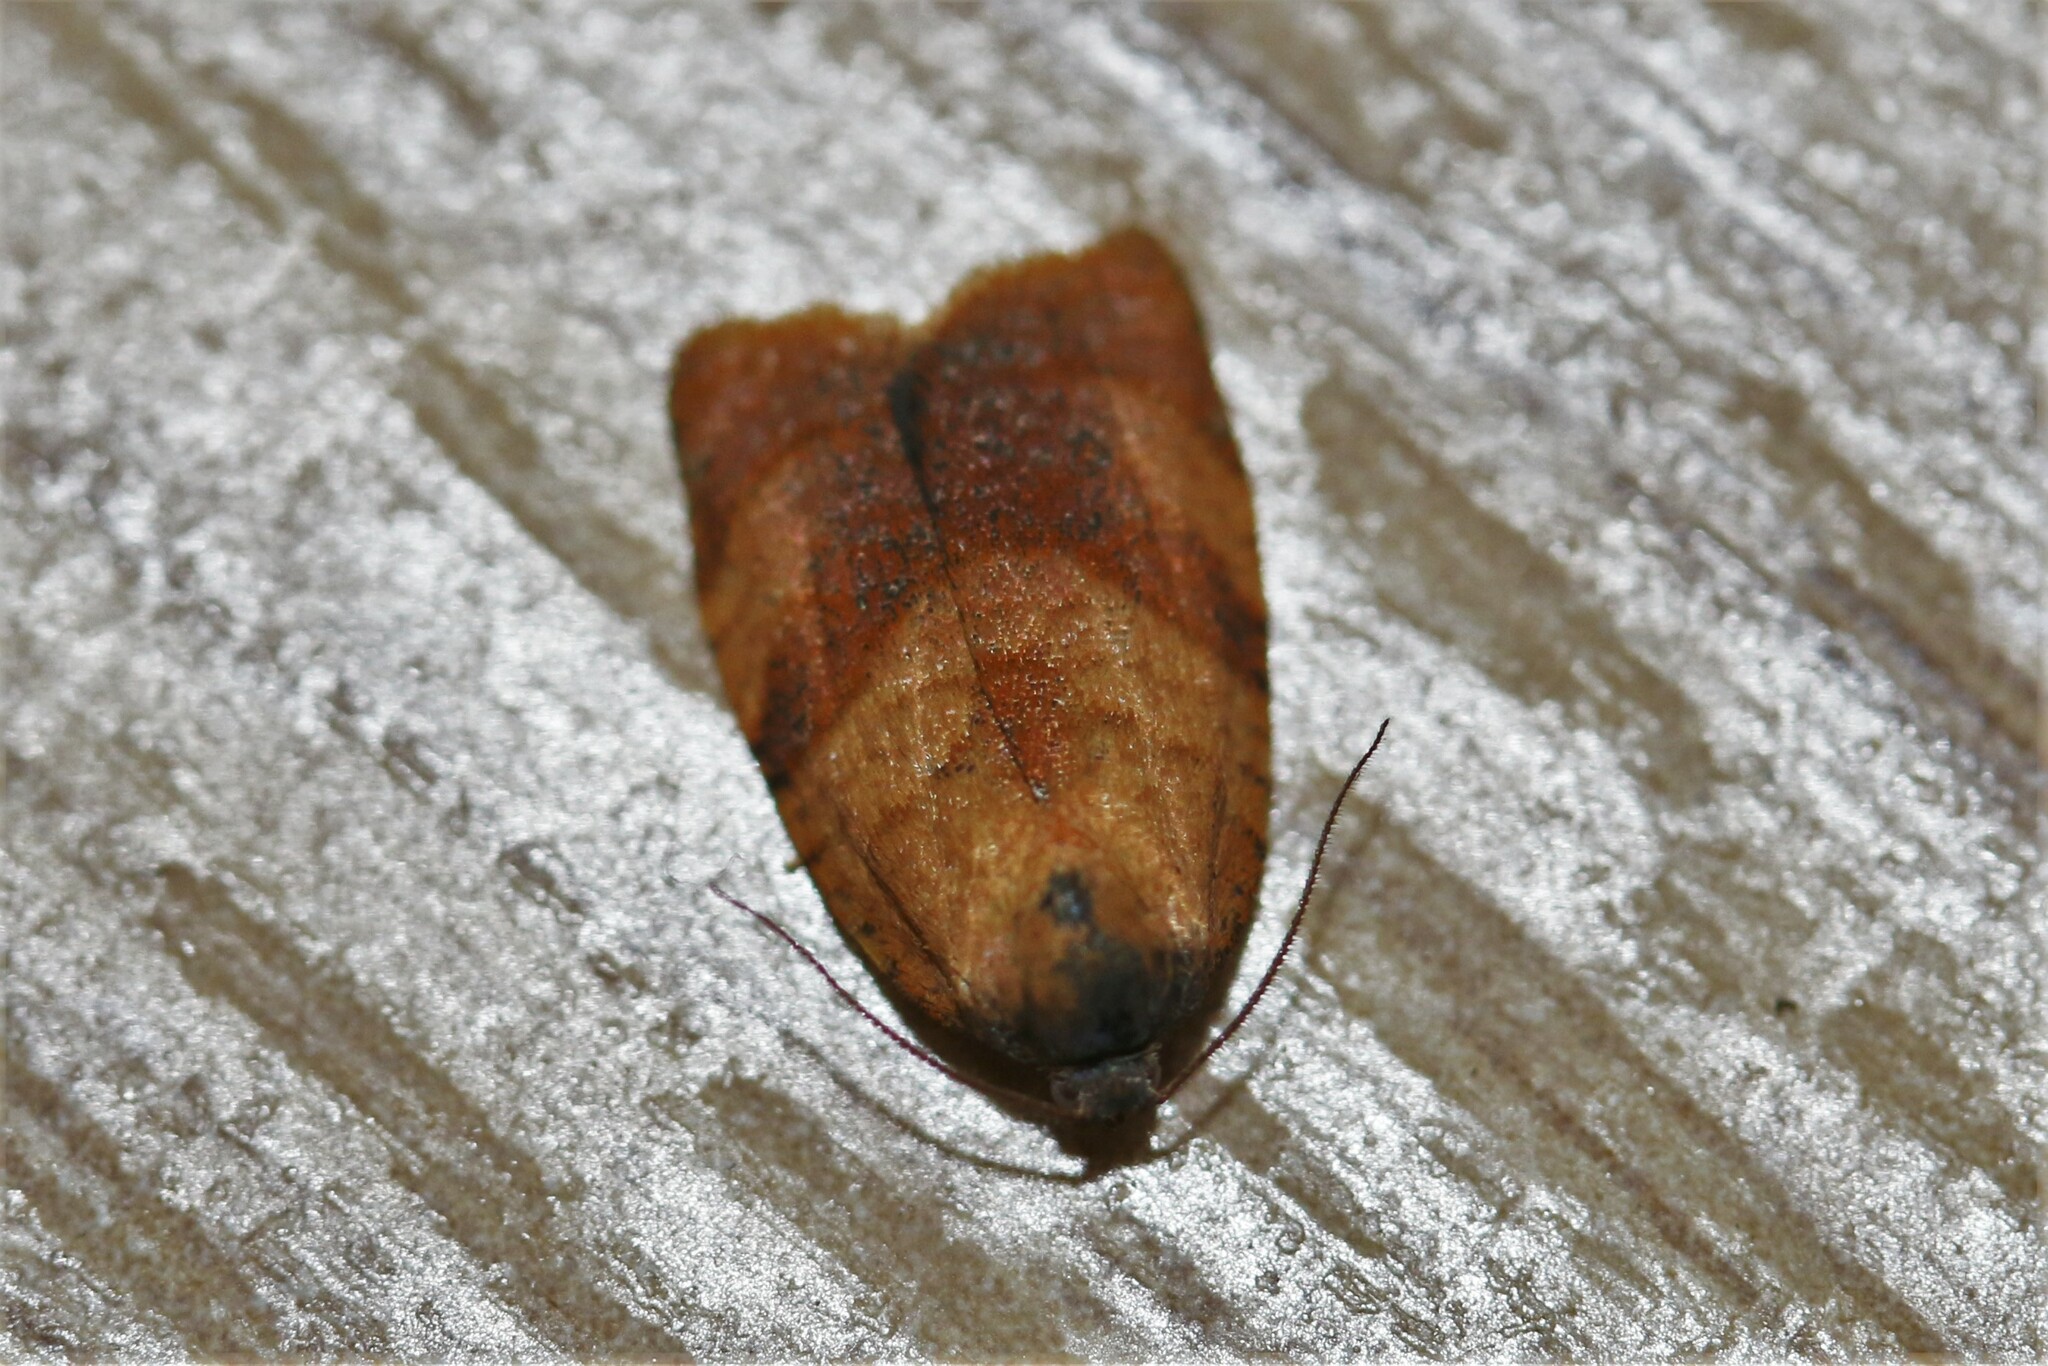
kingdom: Animalia
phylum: Arthropoda
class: Insecta
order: Lepidoptera
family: Tortricidae
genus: Cacoecimorpha
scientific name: Cacoecimorpha pronubana
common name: Carnation tortrix
